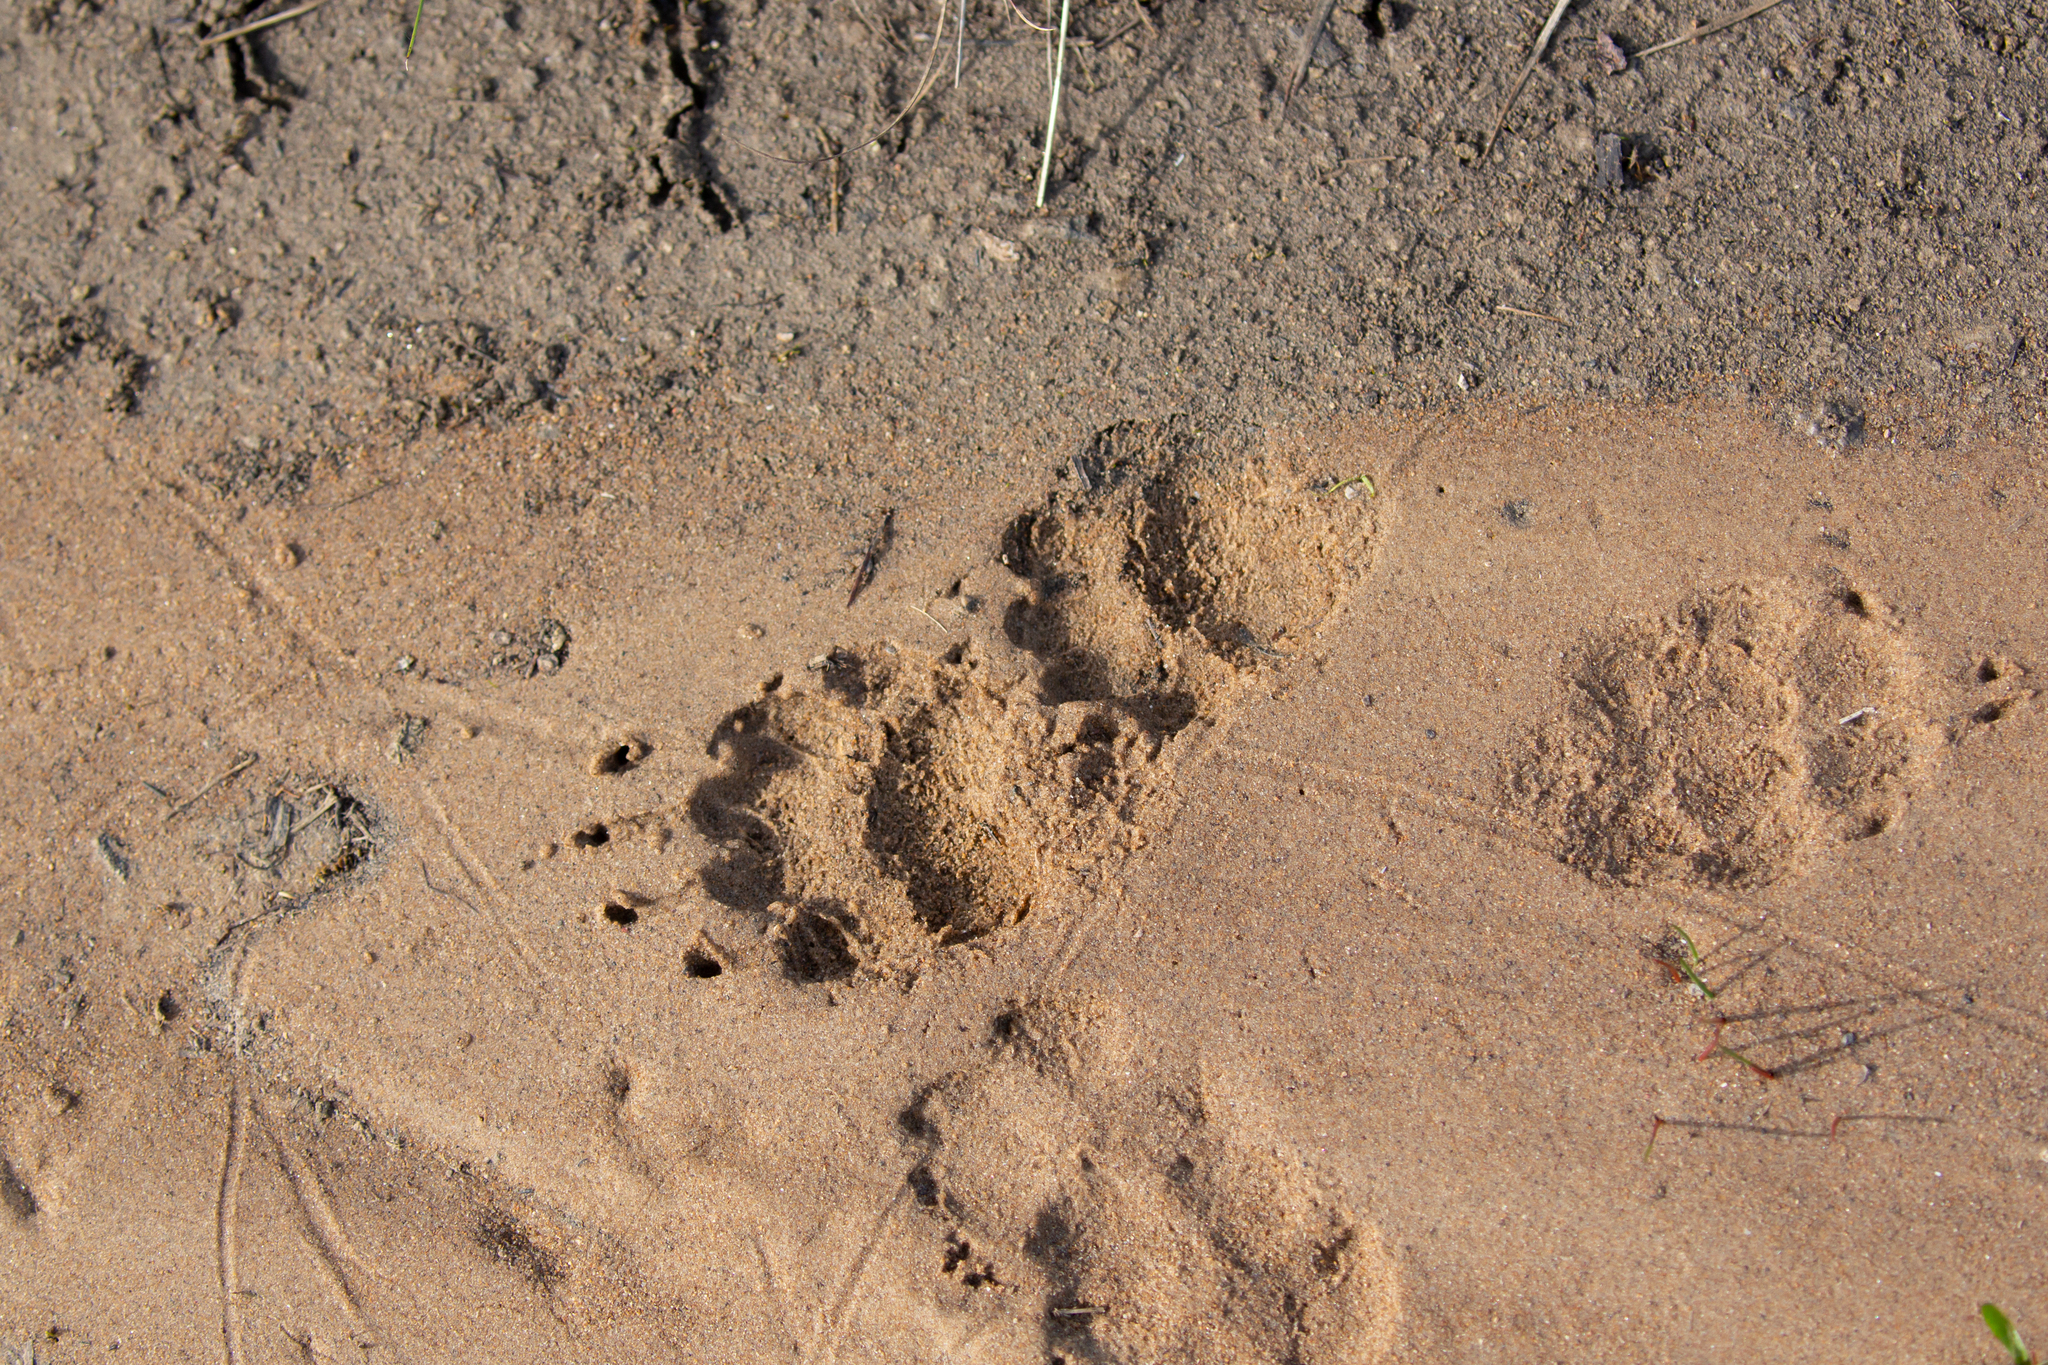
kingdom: Animalia
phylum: Chordata
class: Mammalia
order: Carnivora
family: Mustelidae
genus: Meles
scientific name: Meles meles
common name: Eurasian badger
